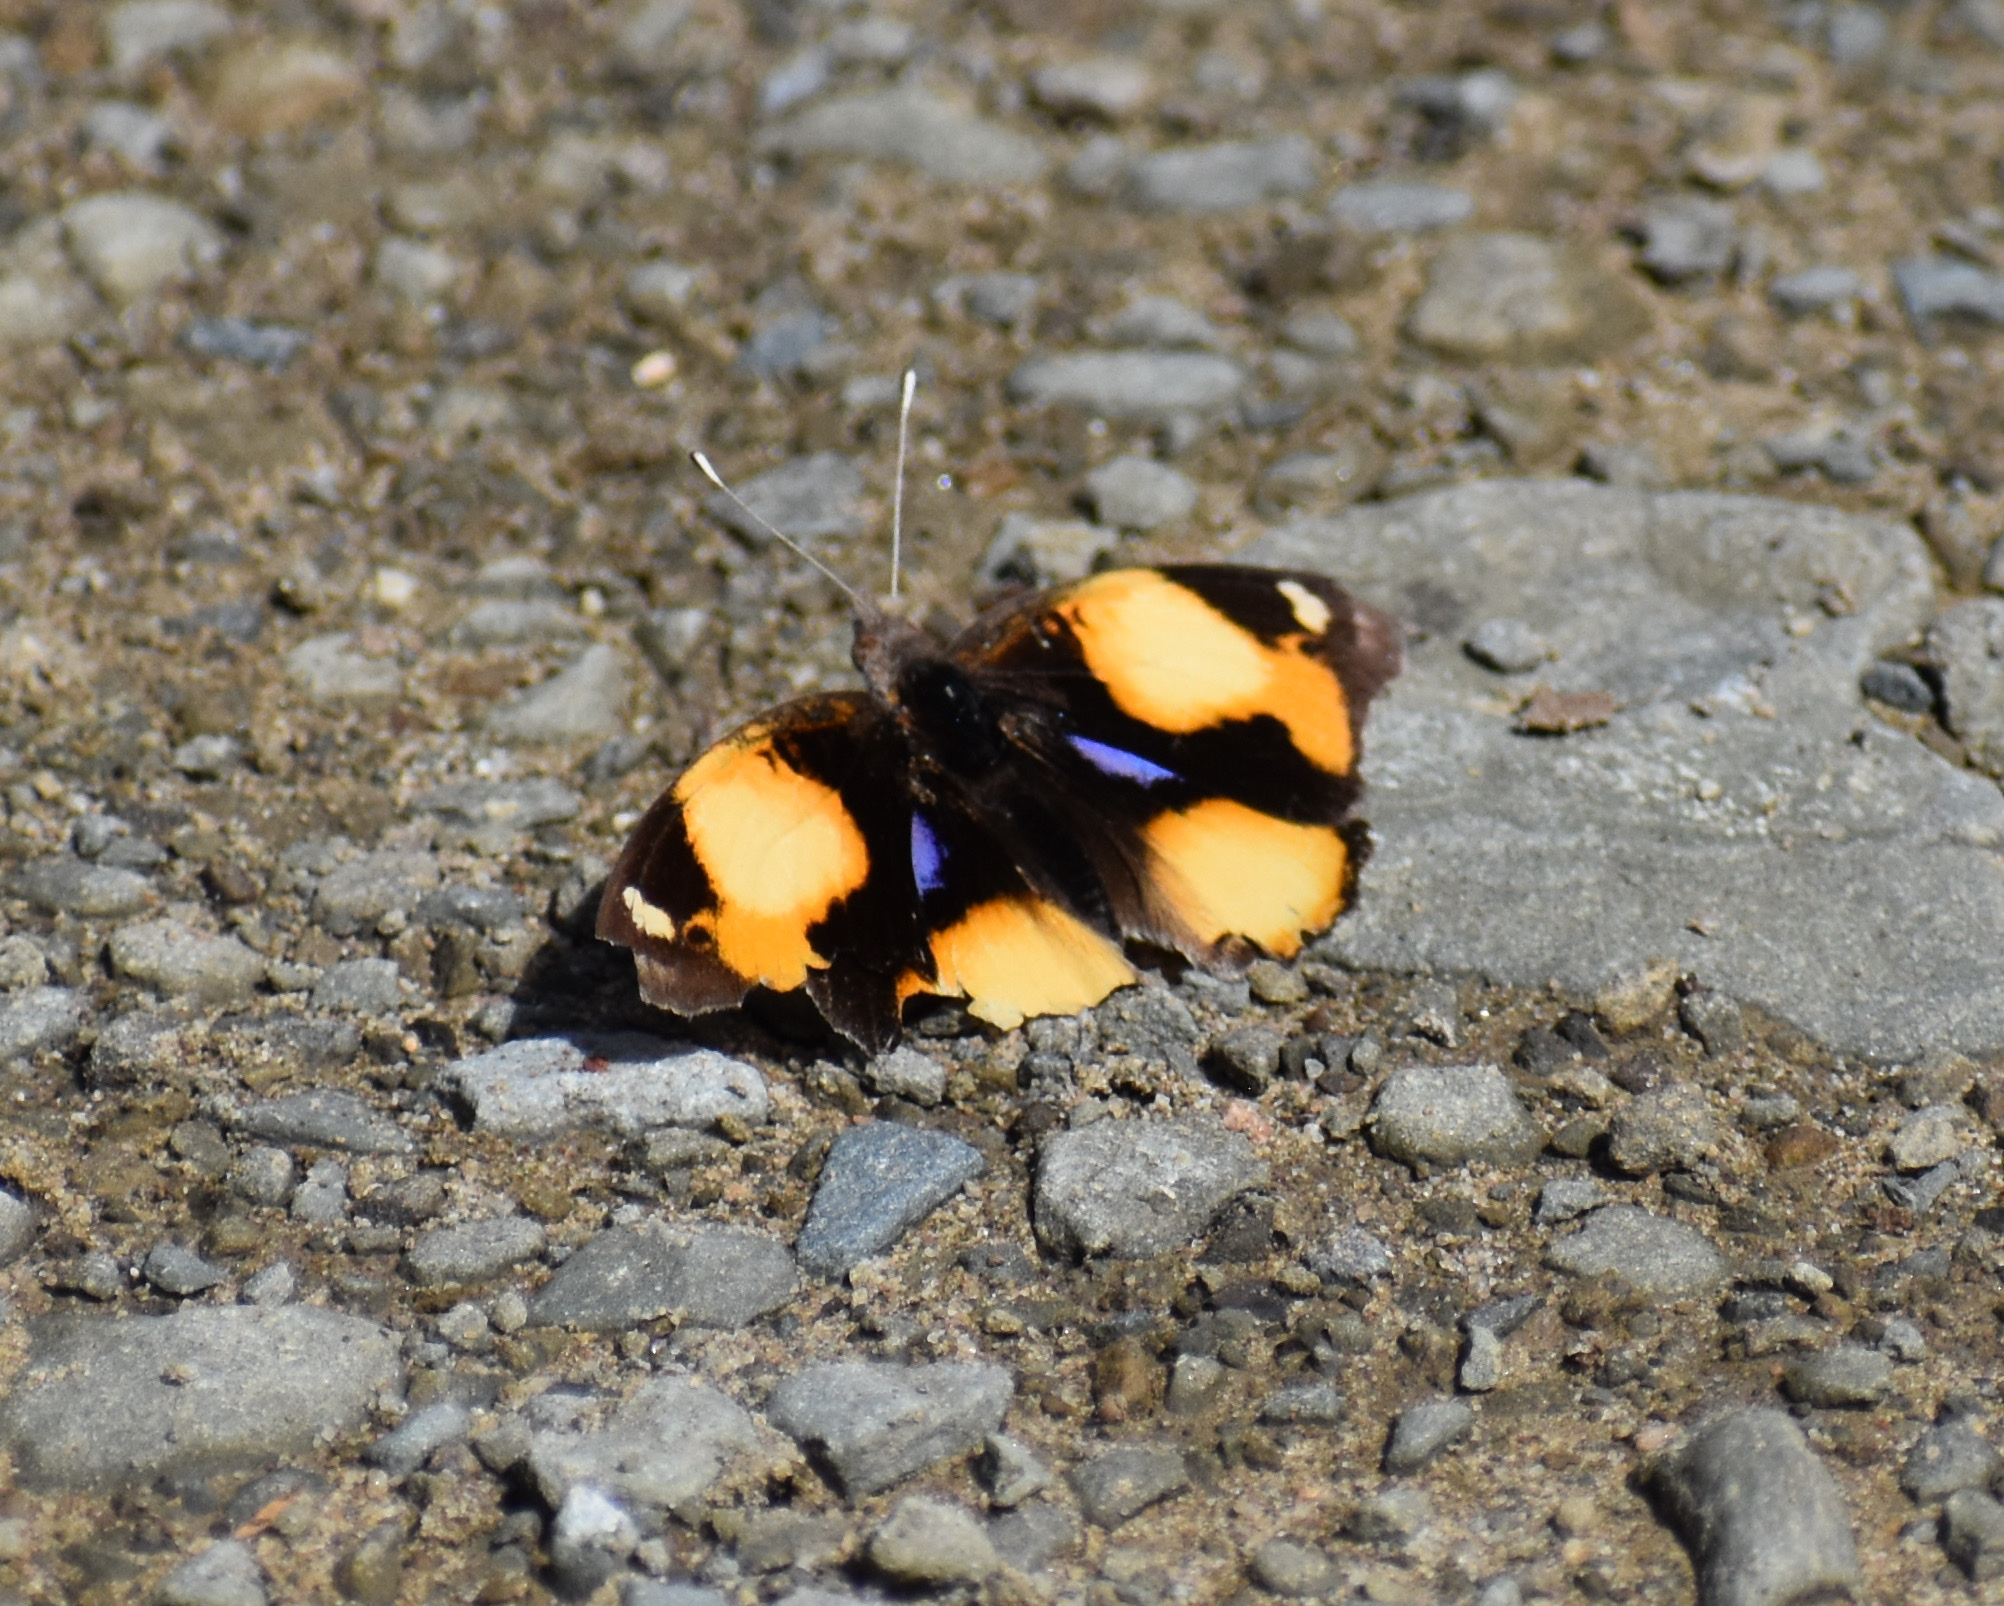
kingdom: Animalia
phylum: Arthropoda
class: Insecta
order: Lepidoptera
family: Nymphalidae
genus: Junonia
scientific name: Junonia hierta
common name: Yellow pansy
